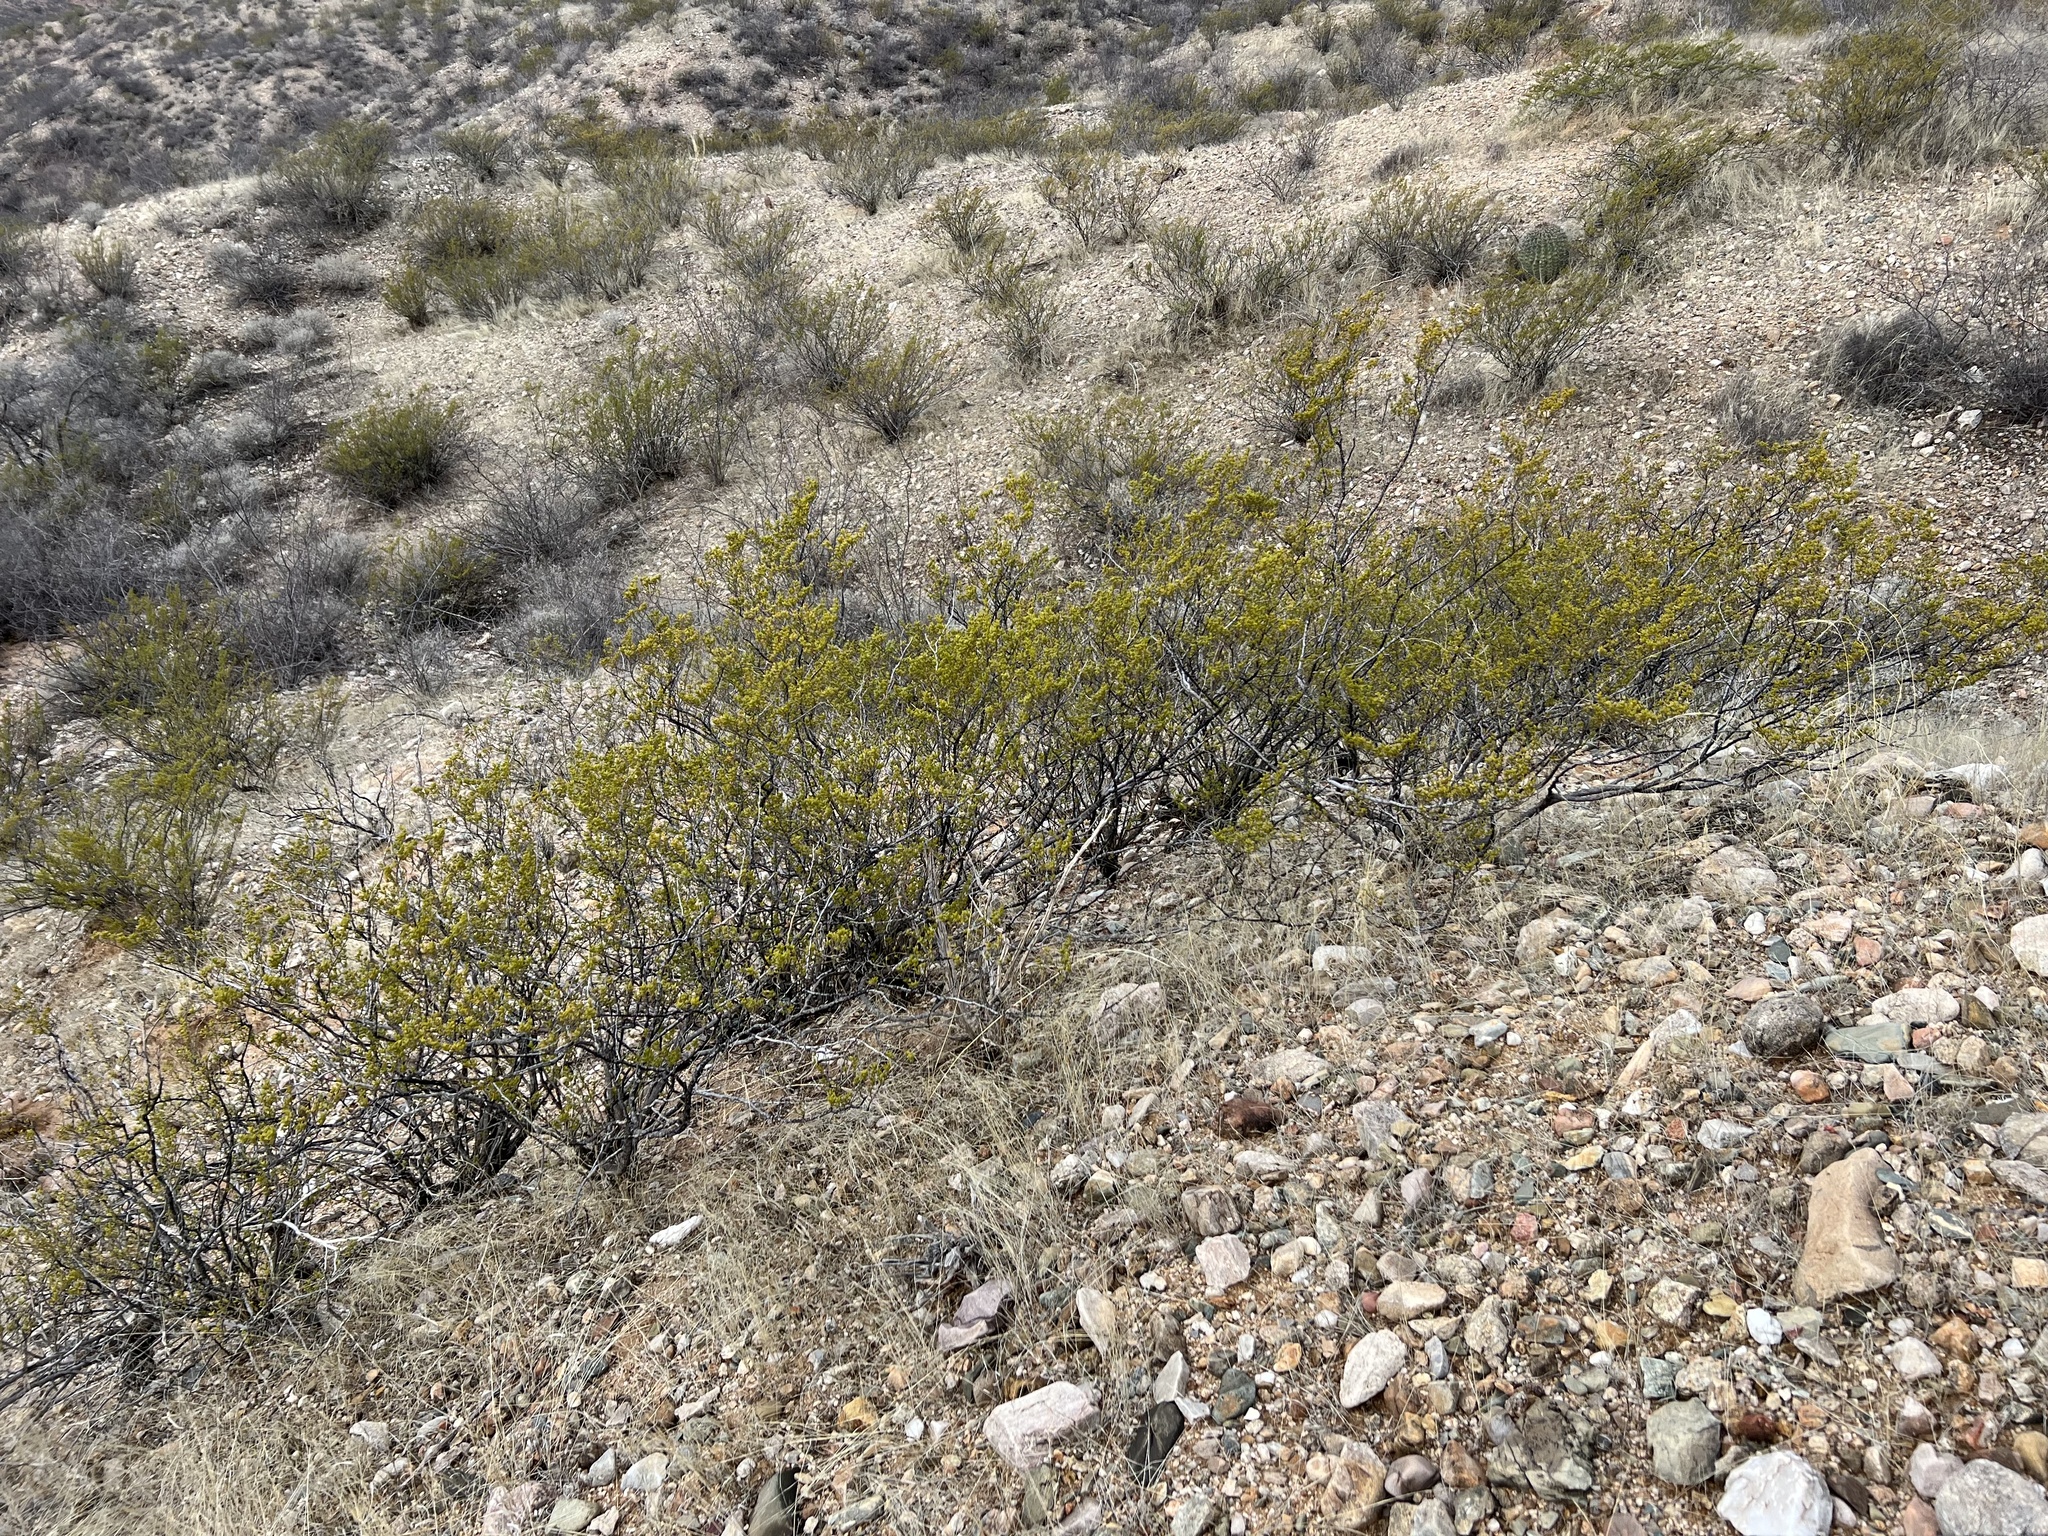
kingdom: Plantae
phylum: Tracheophyta
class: Magnoliopsida
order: Zygophyllales
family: Zygophyllaceae
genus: Larrea
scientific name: Larrea tridentata
